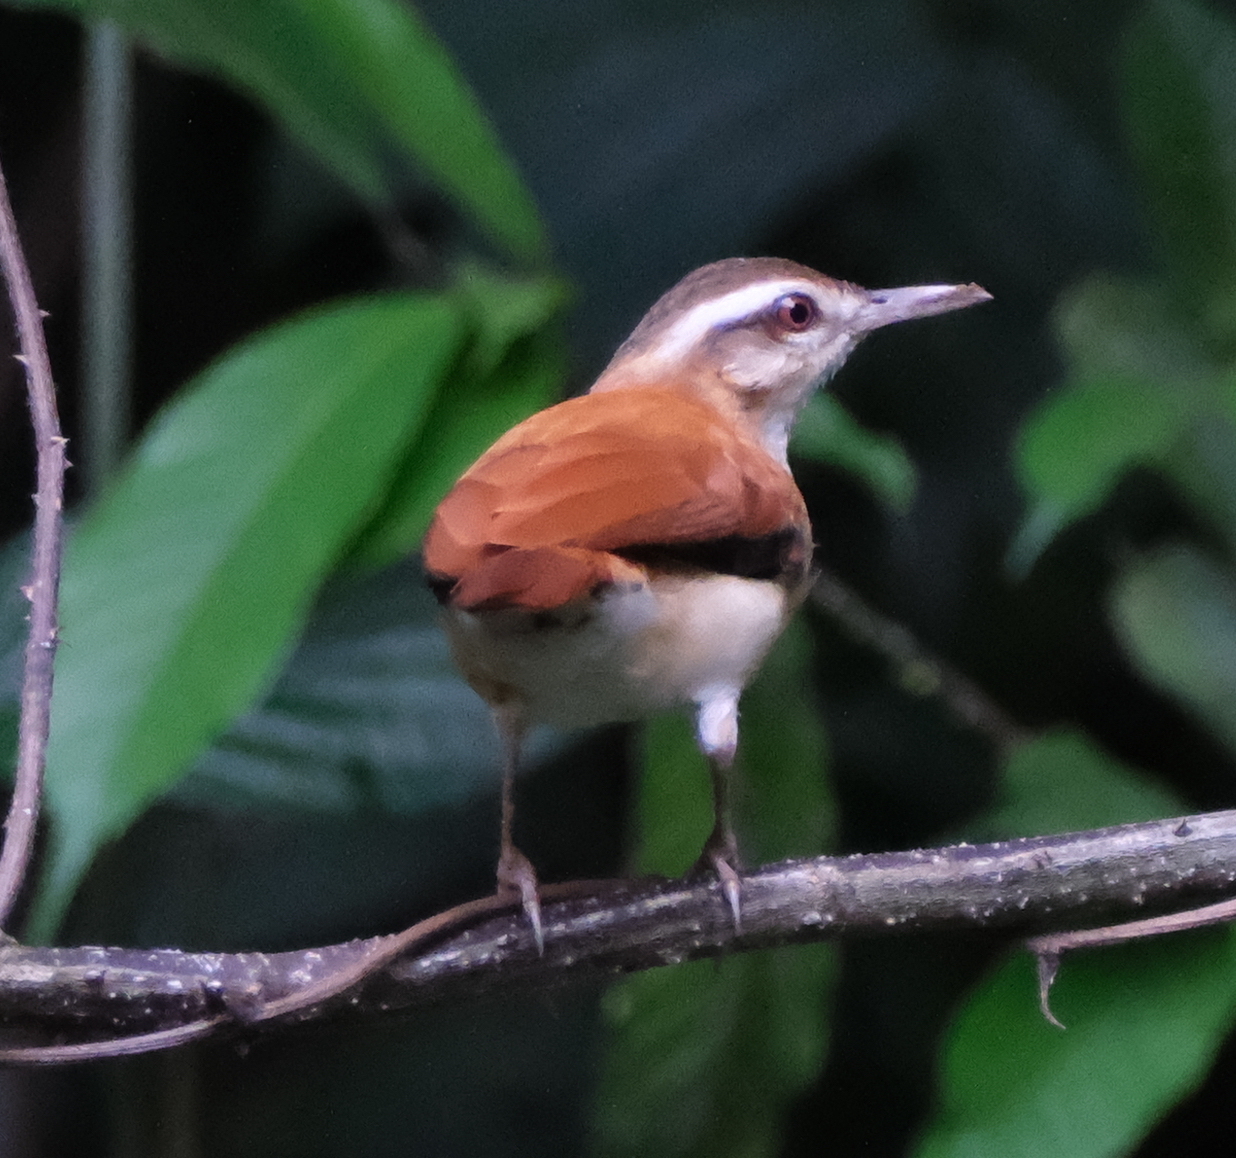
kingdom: Animalia
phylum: Chordata
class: Aves
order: Passeriformes
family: Furnariidae
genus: Furnarius
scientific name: Furnarius leucopus
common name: Pale-legged hornero
